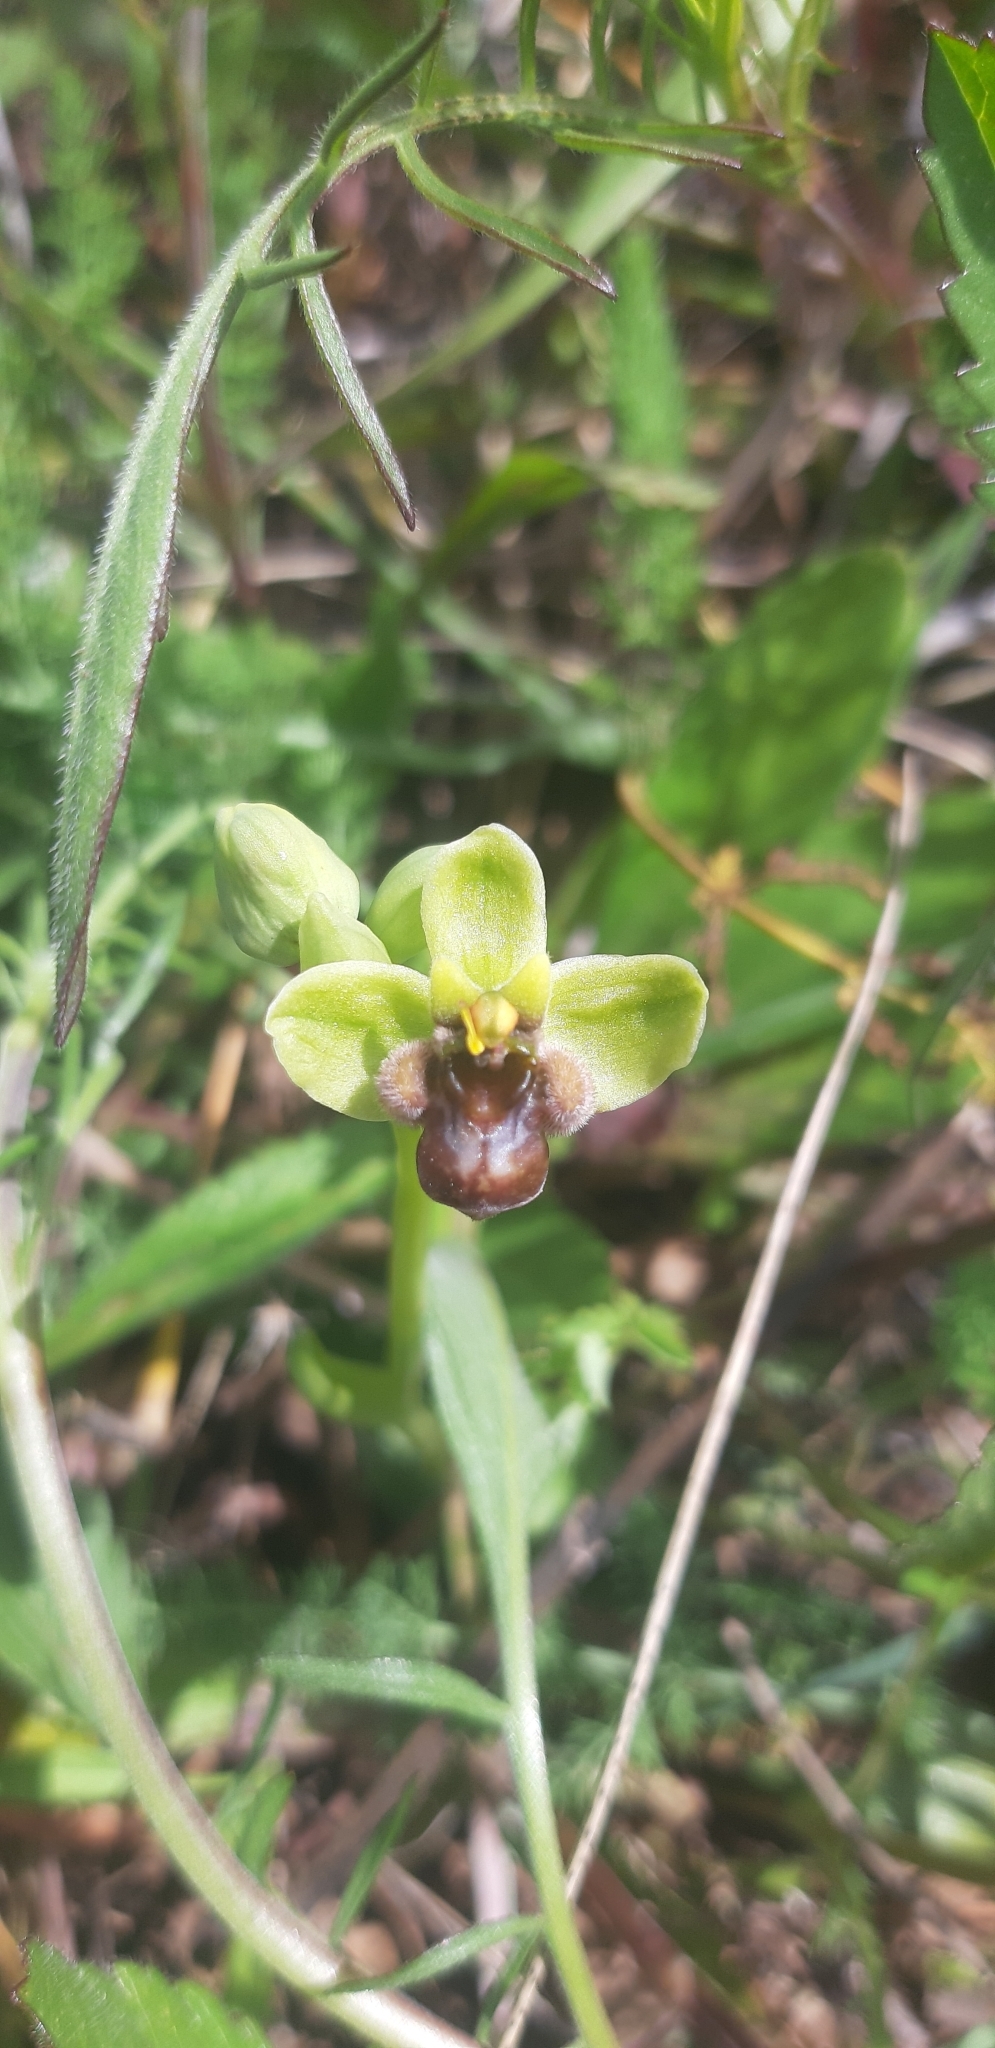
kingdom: Plantae
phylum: Tracheophyta
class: Liliopsida
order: Asparagales
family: Orchidaceae
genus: Ophrys
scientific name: Ophrys bombyliflora
